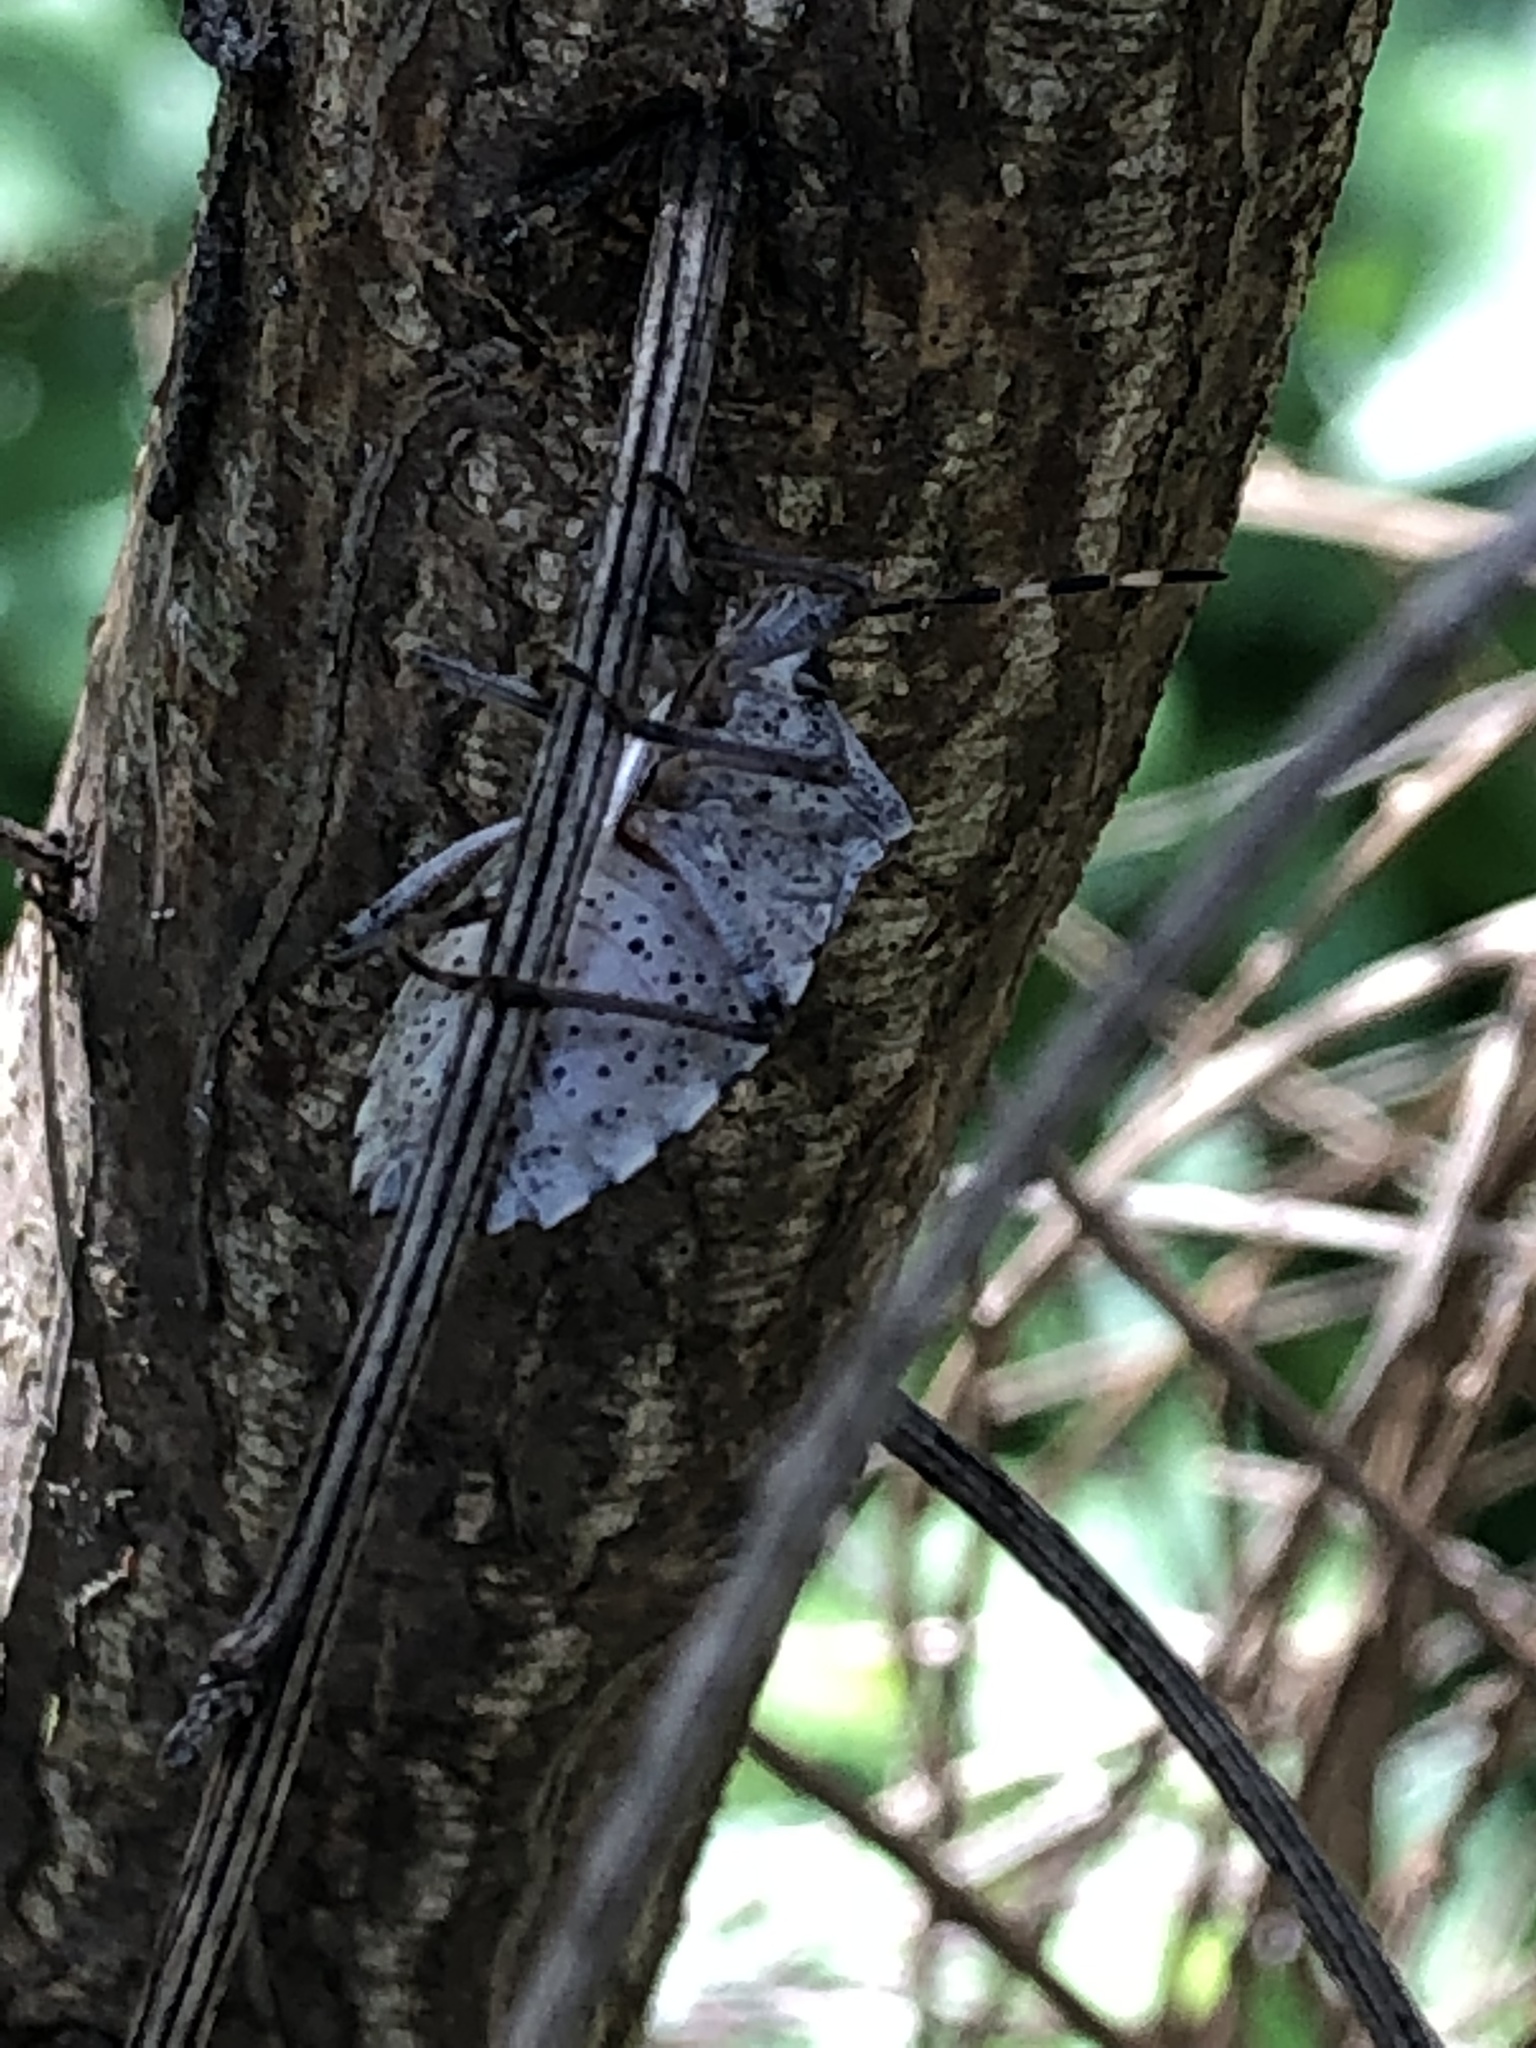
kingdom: Animalia
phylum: Arthropoda
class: Insecta
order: Hemiptera
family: Pentatomidae
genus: Rhaphigaster
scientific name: Rhaphigaster nebulosa
